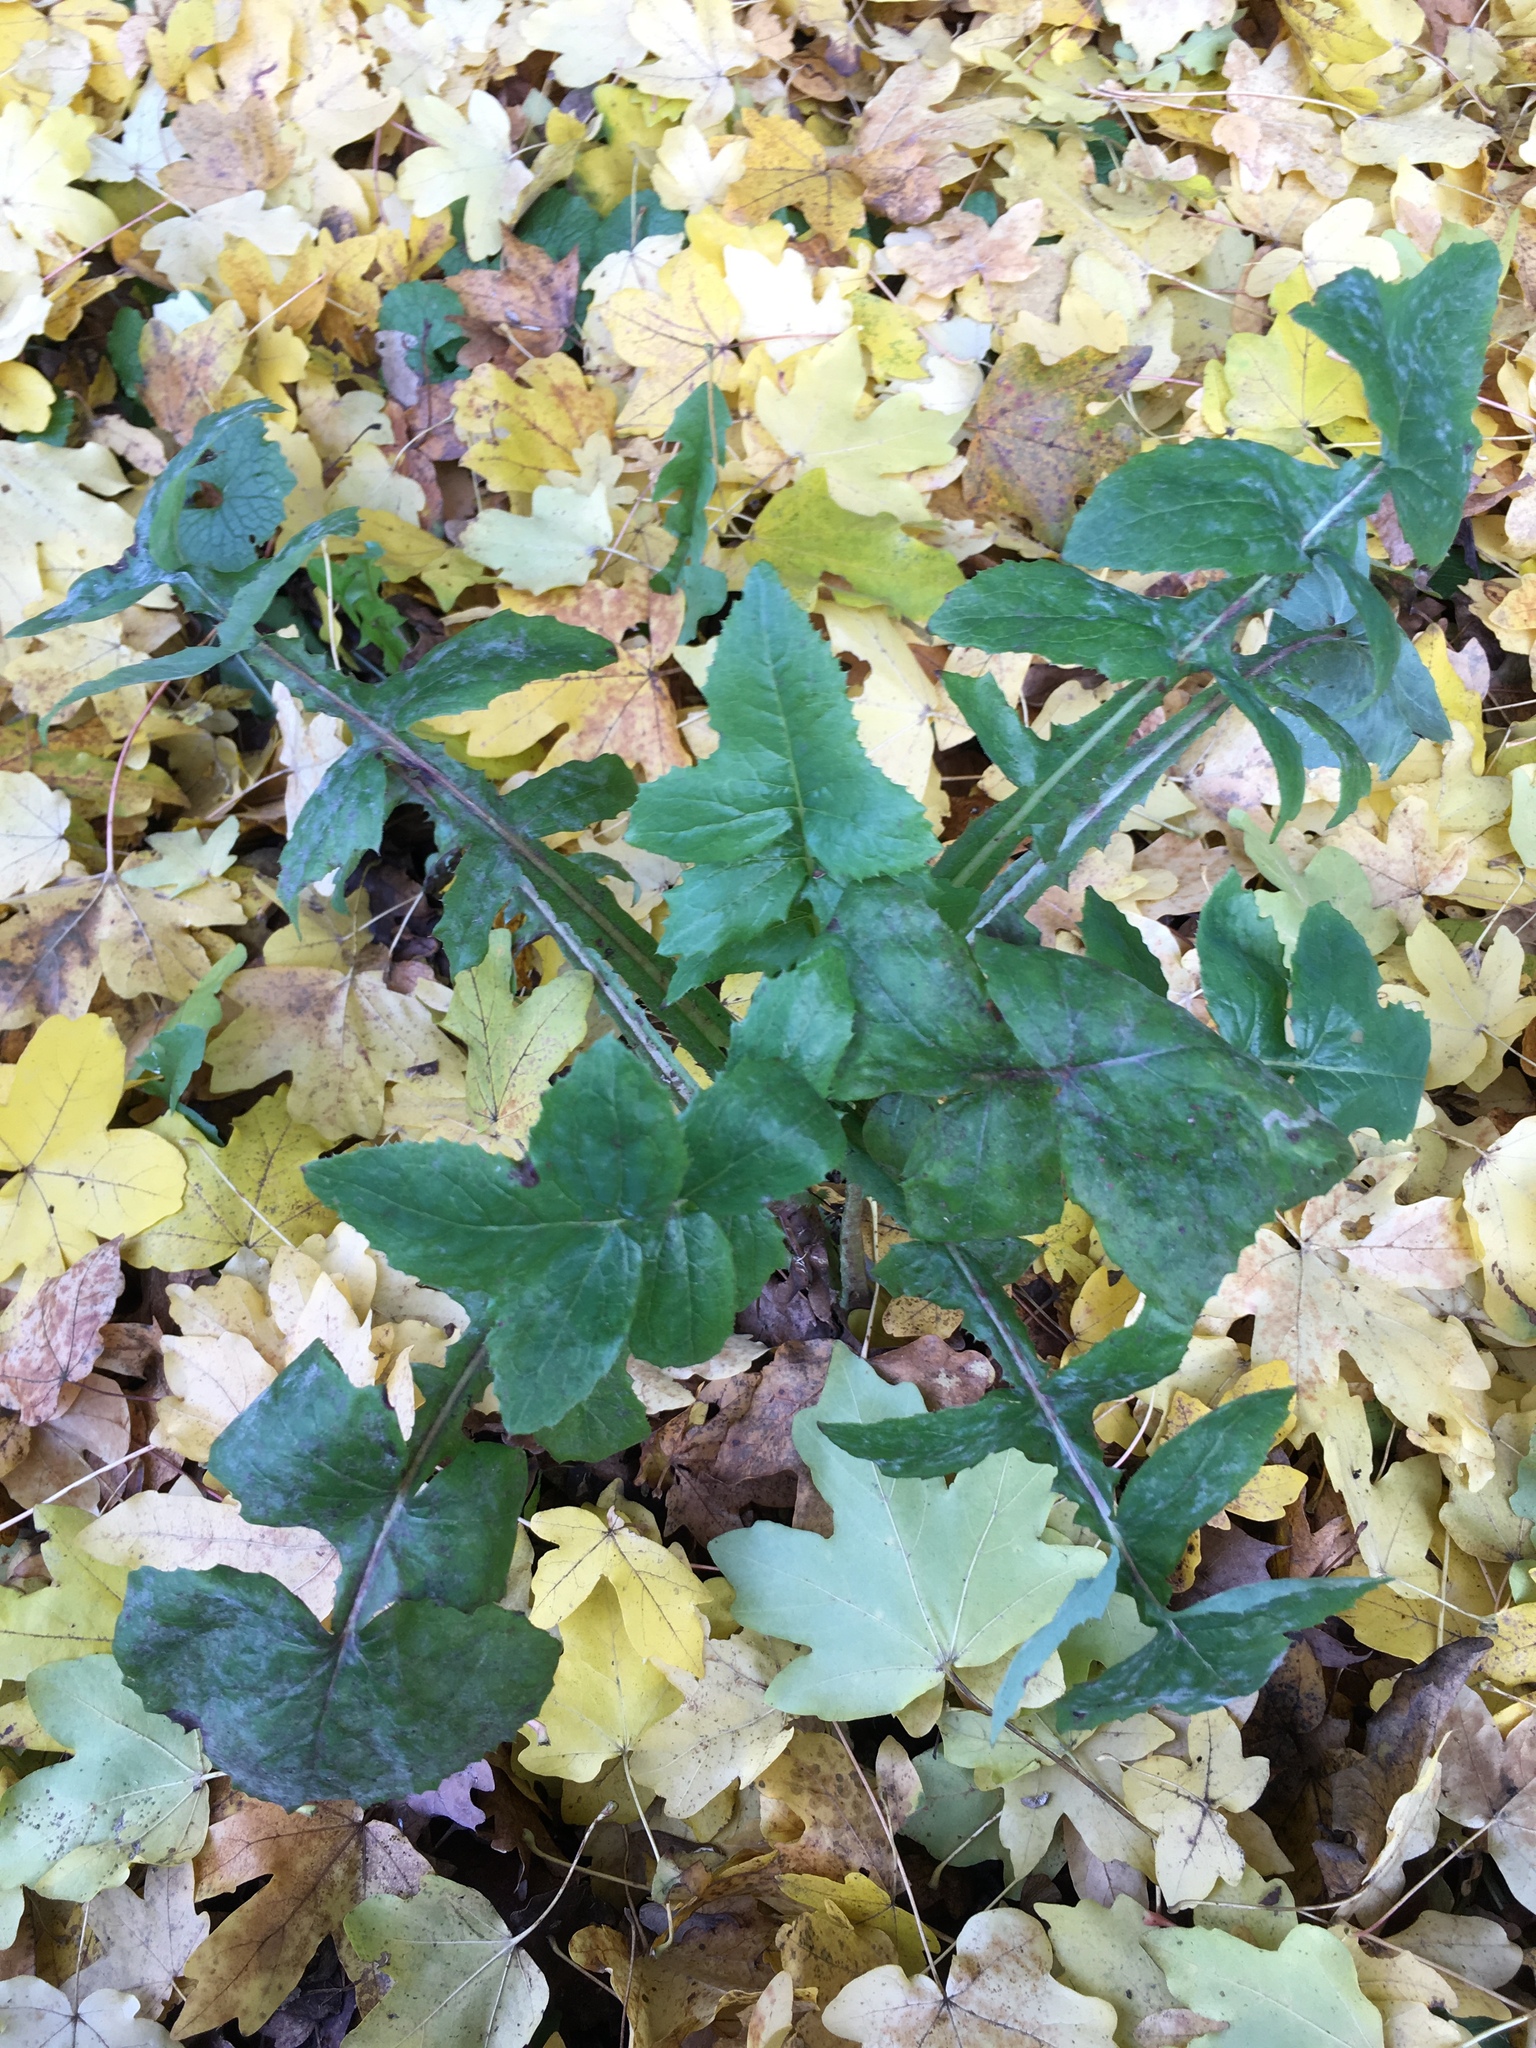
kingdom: Plantae
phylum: Tracheophyta
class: Magnoliopsida
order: Asterales
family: Asteraceae
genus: Sonchus
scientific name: Sonchus oleraceus
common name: Common sowthistle
